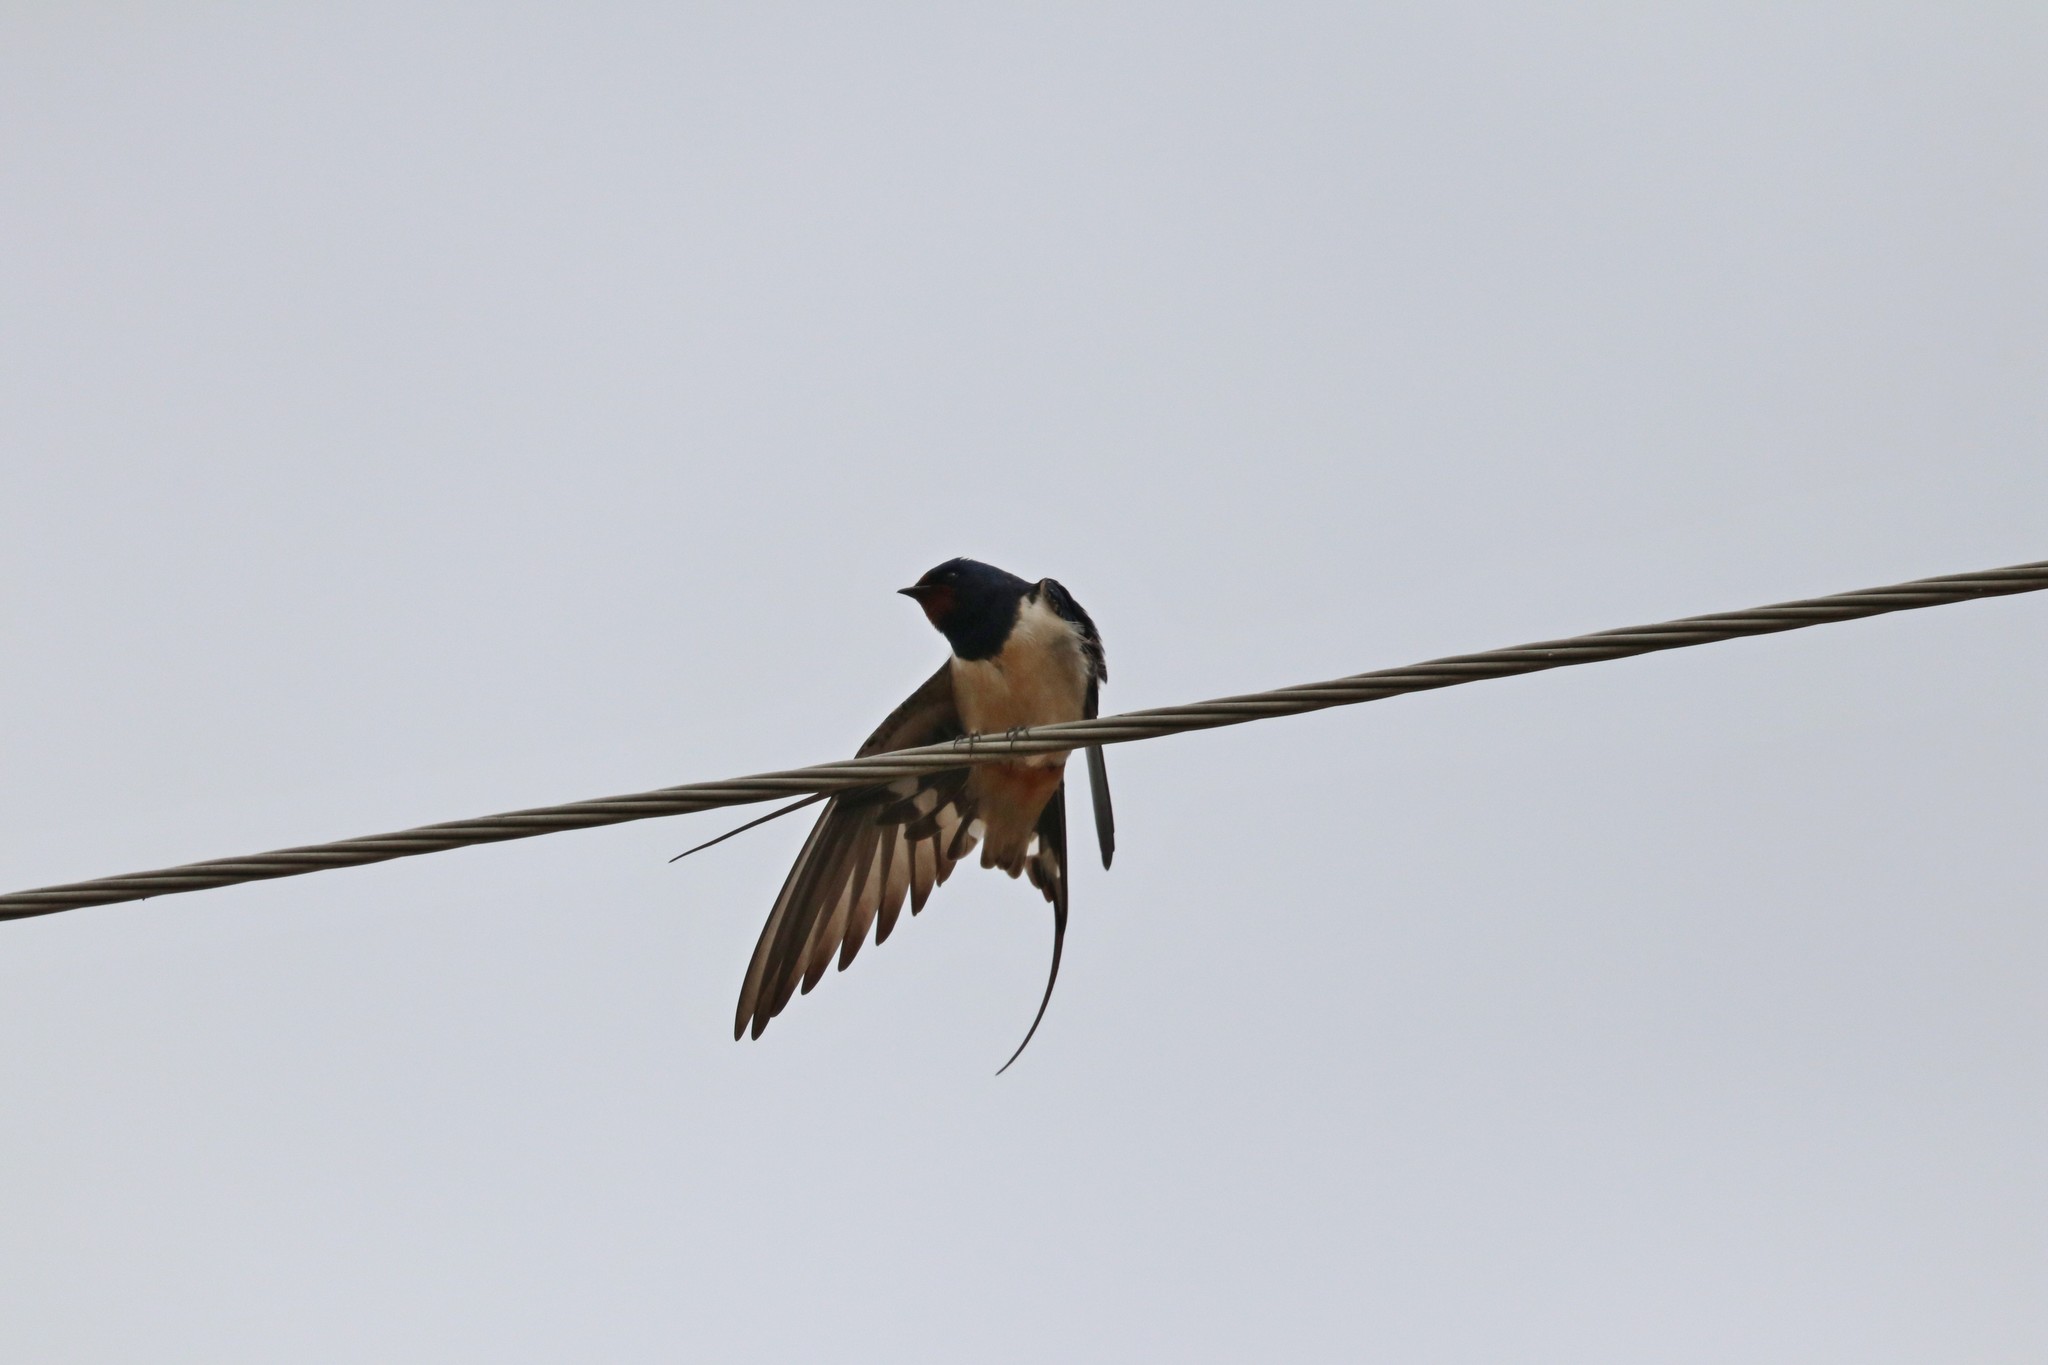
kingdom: Animalia
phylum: Chordata
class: Aves
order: Passeriformes
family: Hirundinidae
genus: Hirundo
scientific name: Hirundo rustica
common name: Barn swallow
